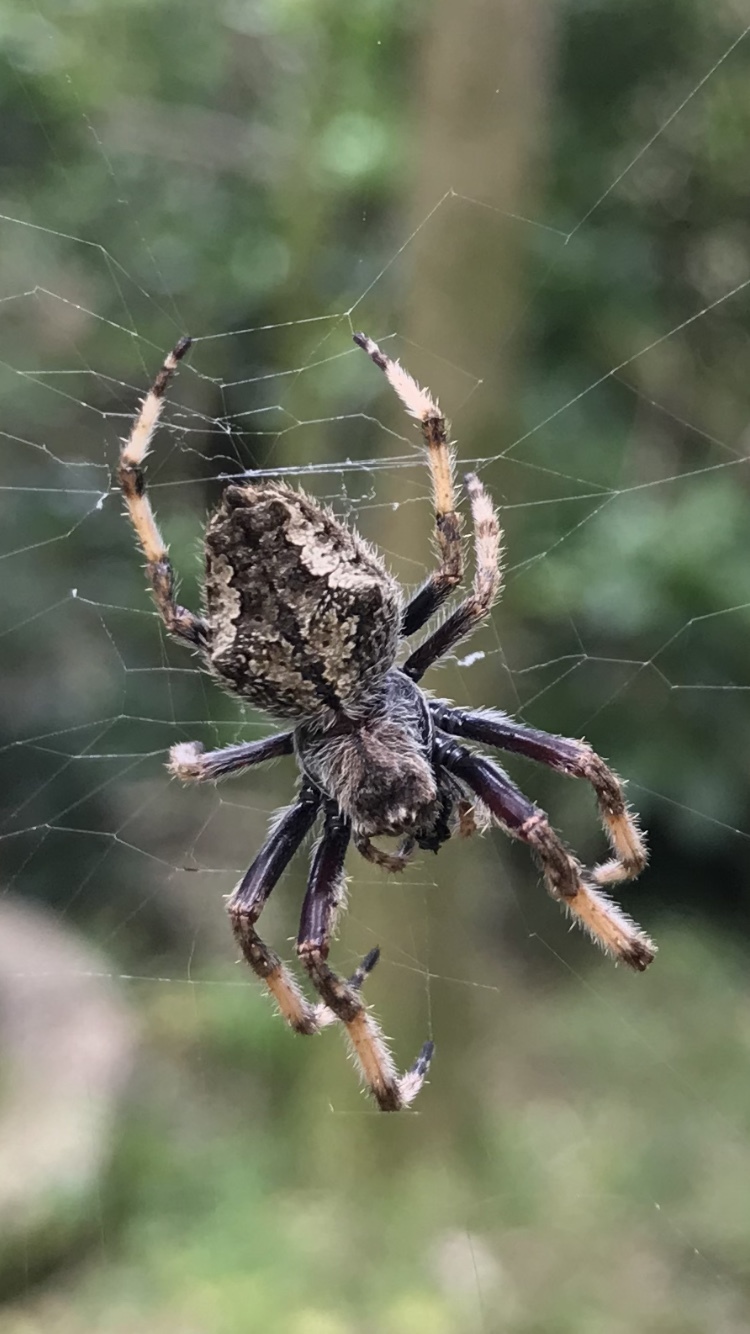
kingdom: Animalia
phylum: Arthropoda
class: Arachnida
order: Araneae
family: Araneidae
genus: Eriophora
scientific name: Eriophora pustulosa
